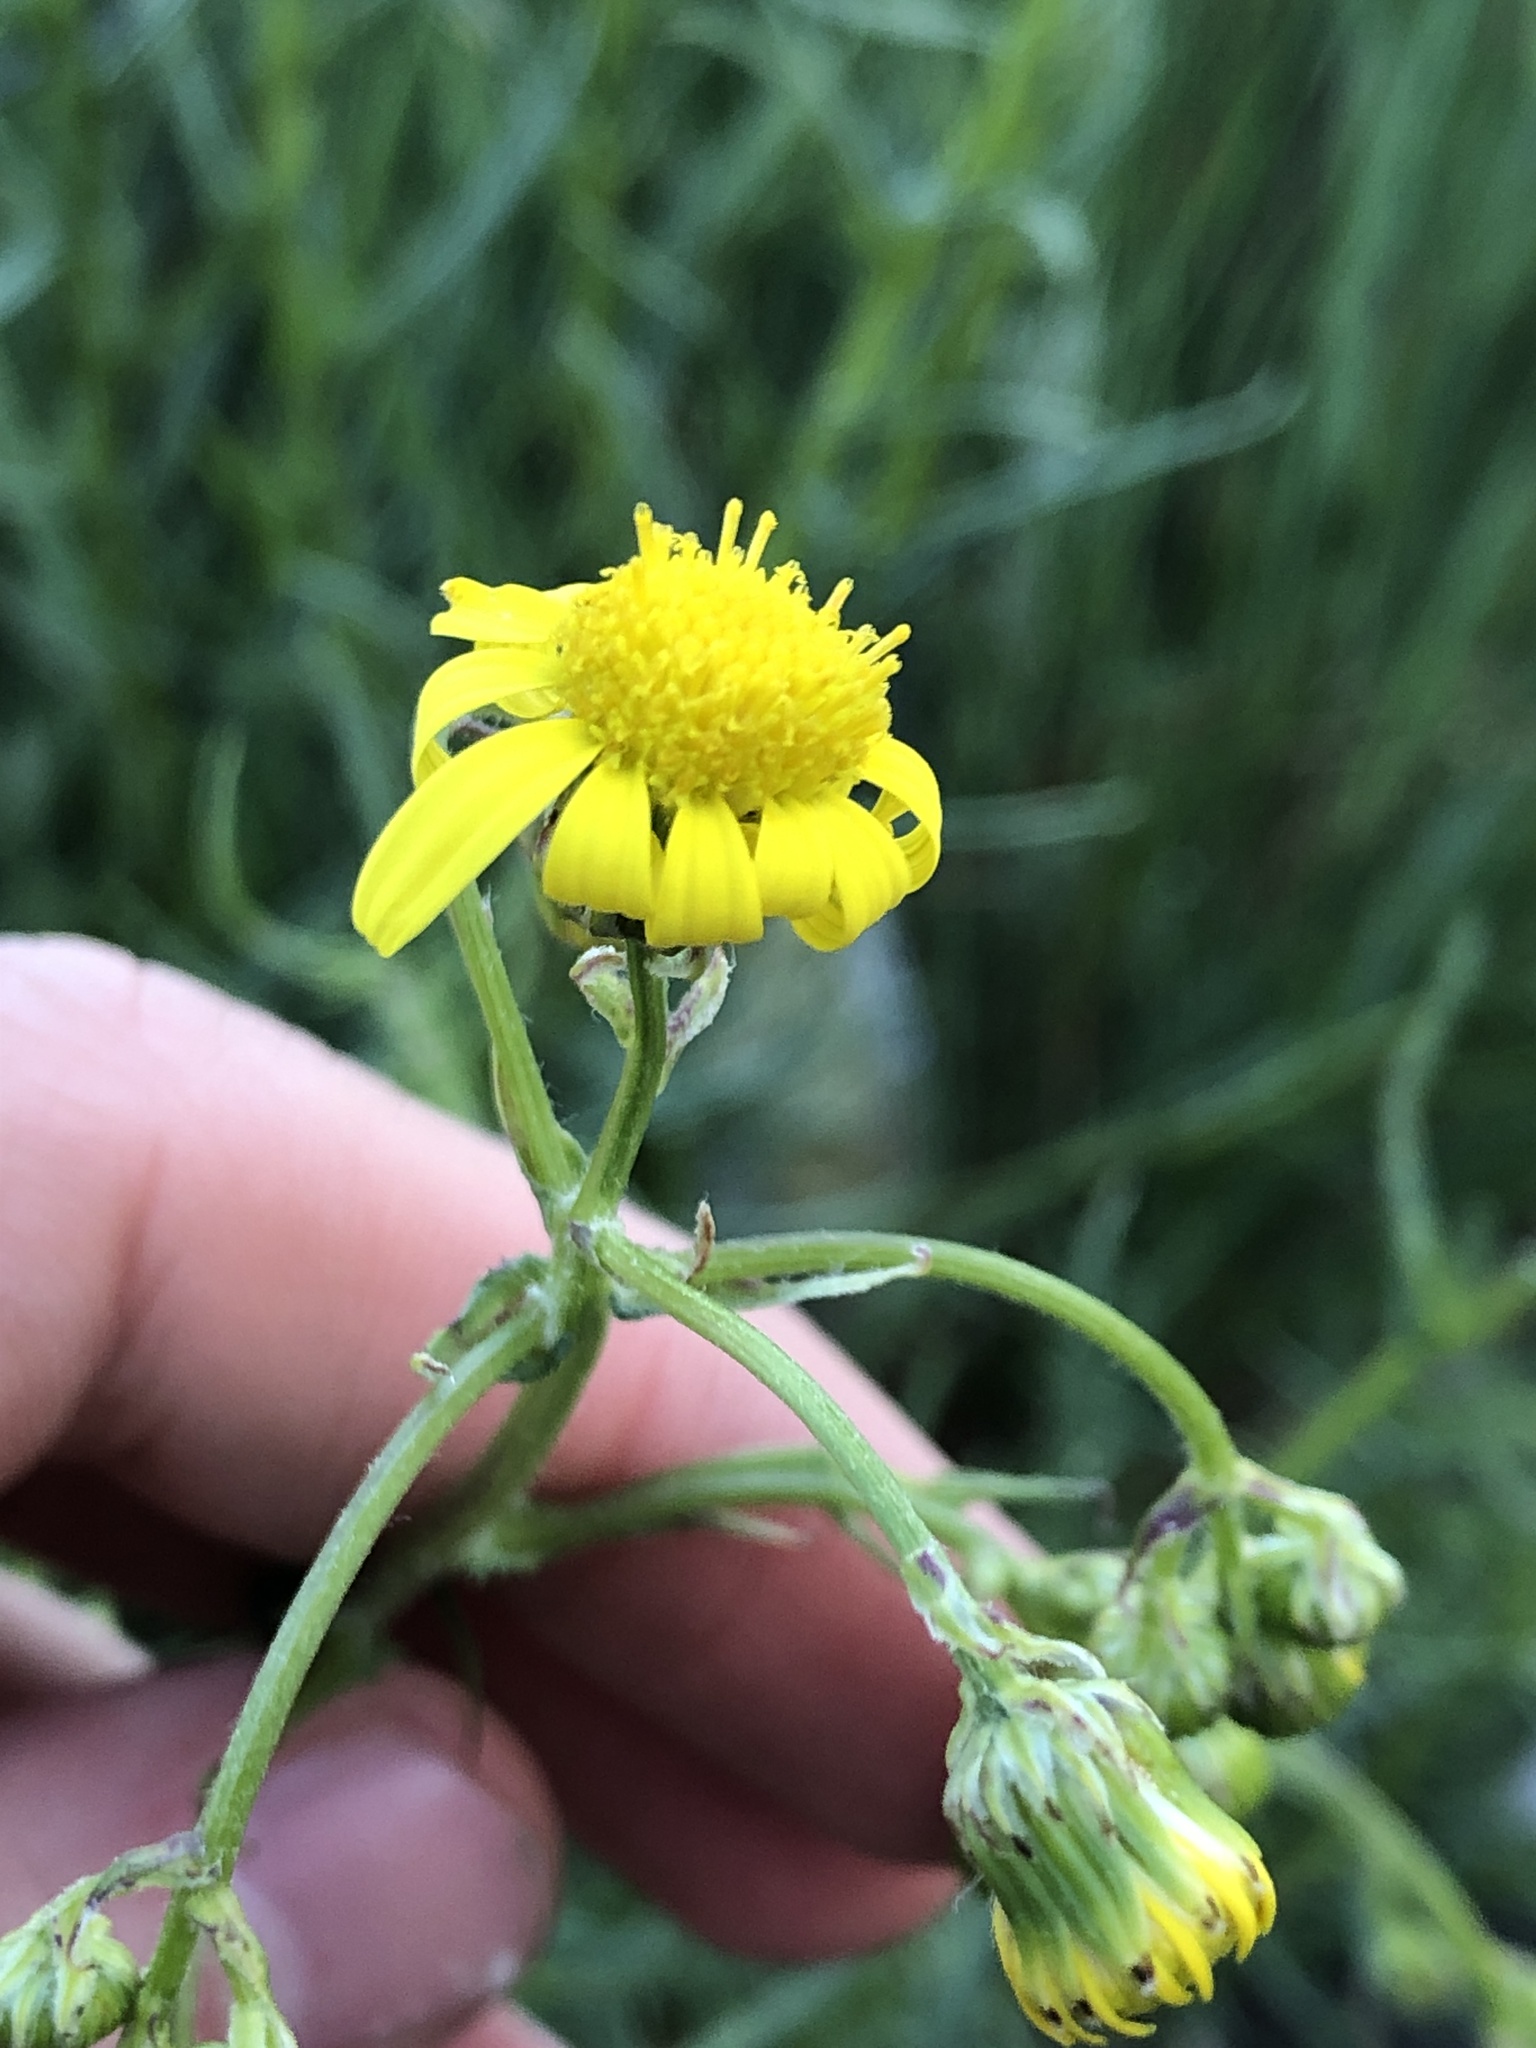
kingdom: Plantae
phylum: Tracheophyta
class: Magnoliopsida
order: Asterales
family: Asteraceae
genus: Senecio
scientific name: Senecio inaequidens
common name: Narrow-leaved ragwort
